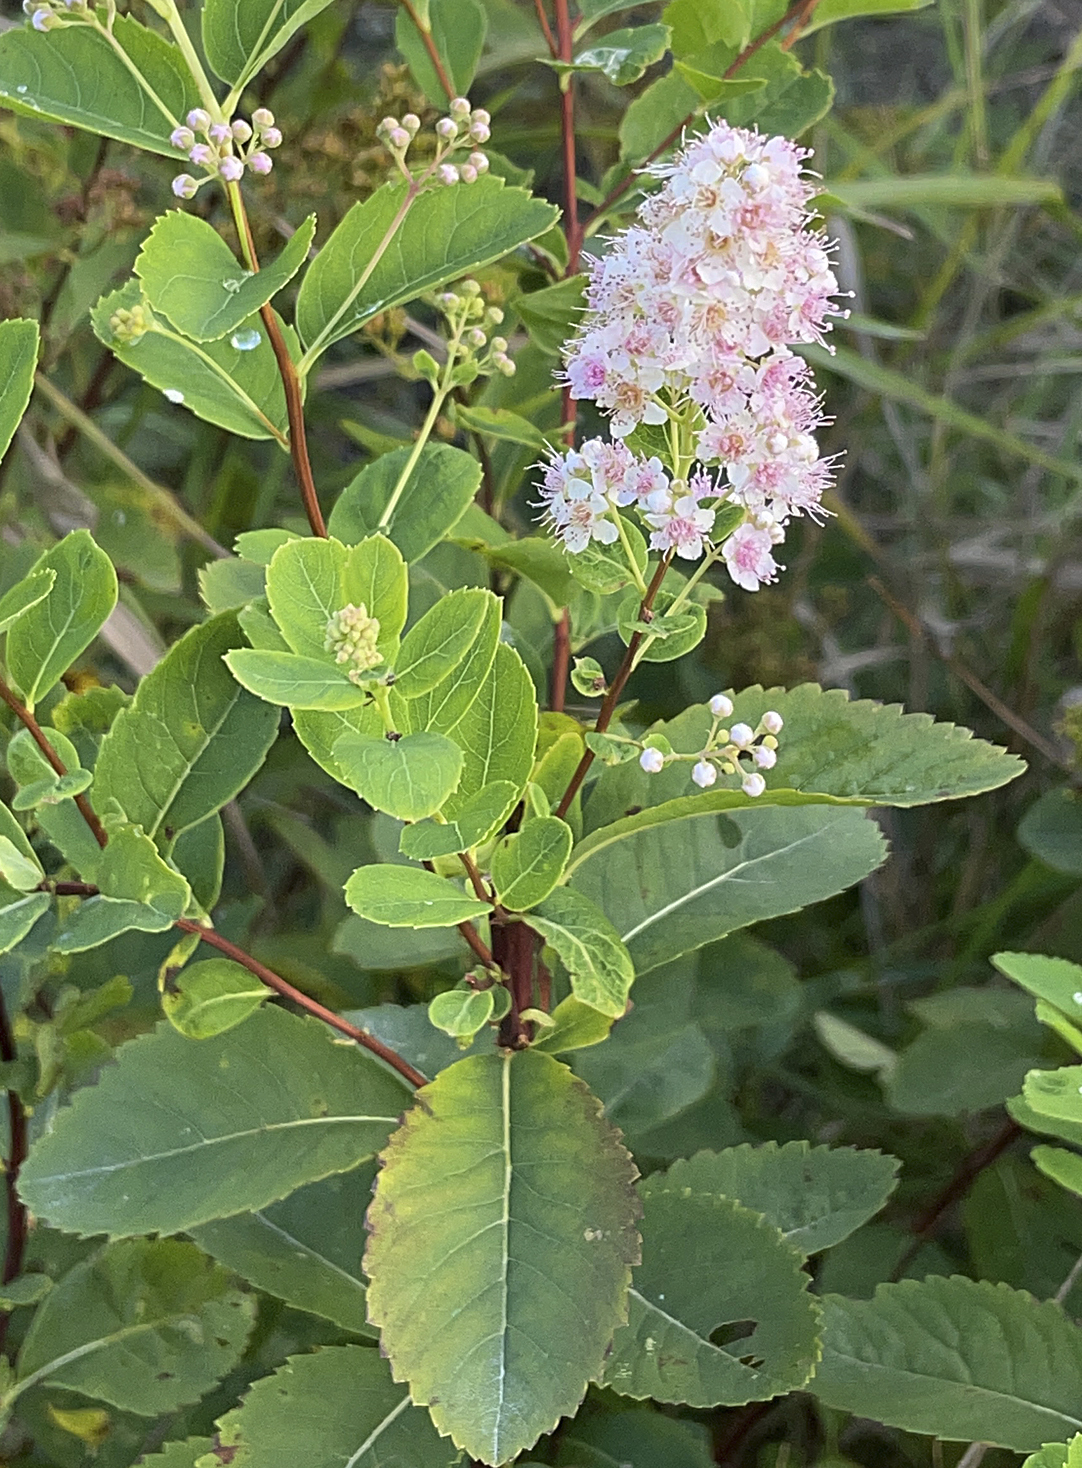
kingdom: Plantae
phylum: Tracheophyta
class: Magnoliopsida
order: Rosales
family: Rosaceae
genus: Spiraea
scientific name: Spiraea alba
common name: Pale bridewort
